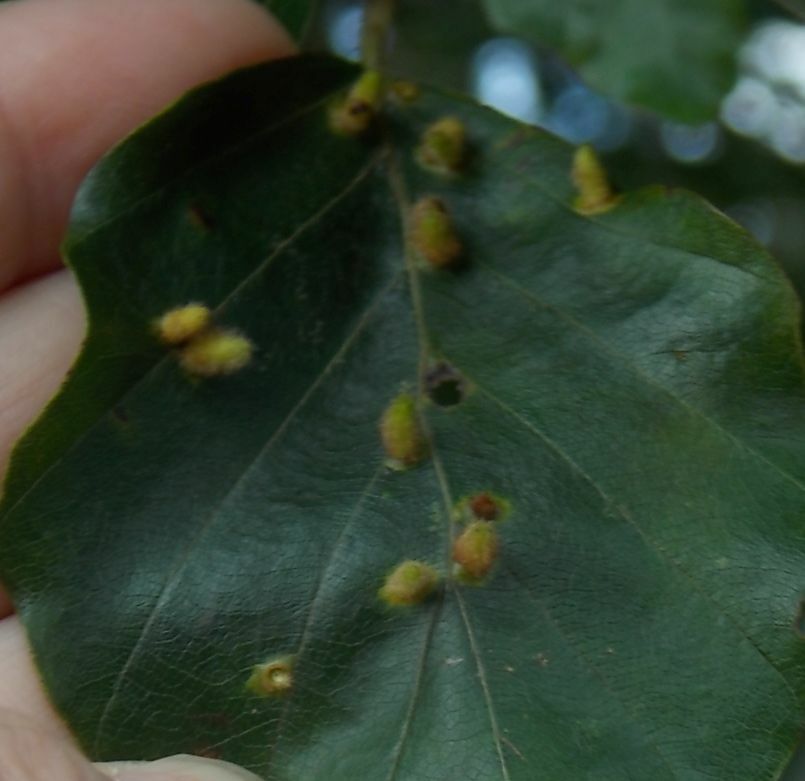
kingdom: Animalia
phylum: Arthropoda
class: Insecta
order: Diptera
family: Cecidomyiidae
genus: Hartigiola
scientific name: Hartigiola annulipes
